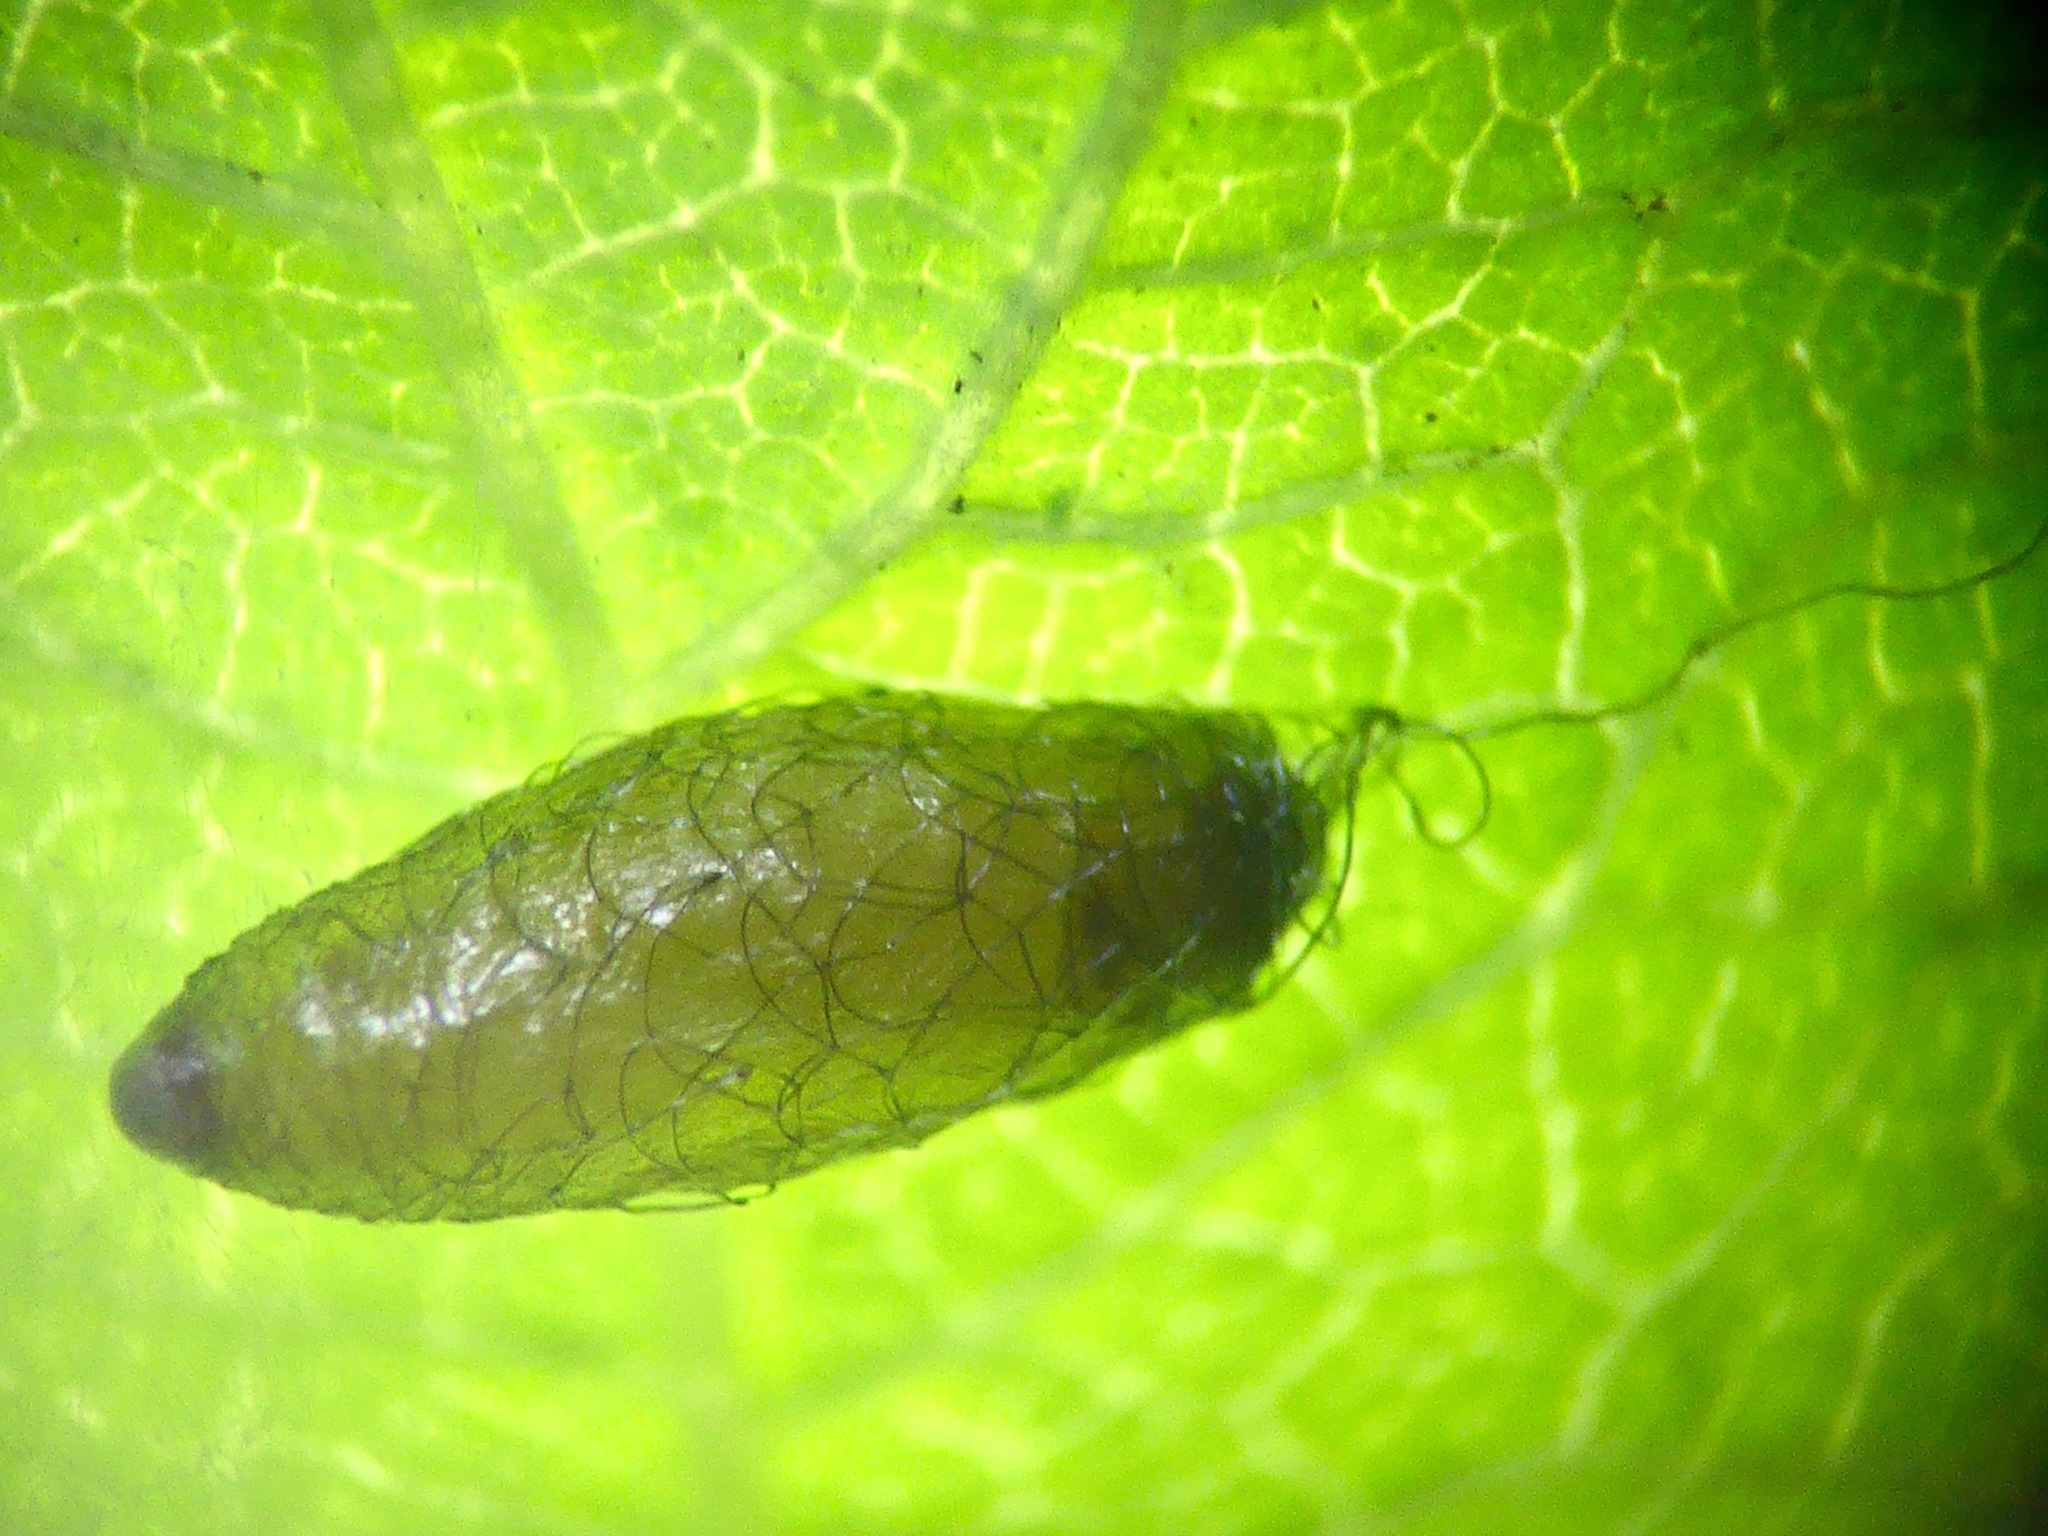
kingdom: Animalia
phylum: Arthropoda
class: Insecta
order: Hymenoptera
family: Braconidae
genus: Meteorus
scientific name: Meteorus pulchricornis
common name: Braconid wasp
